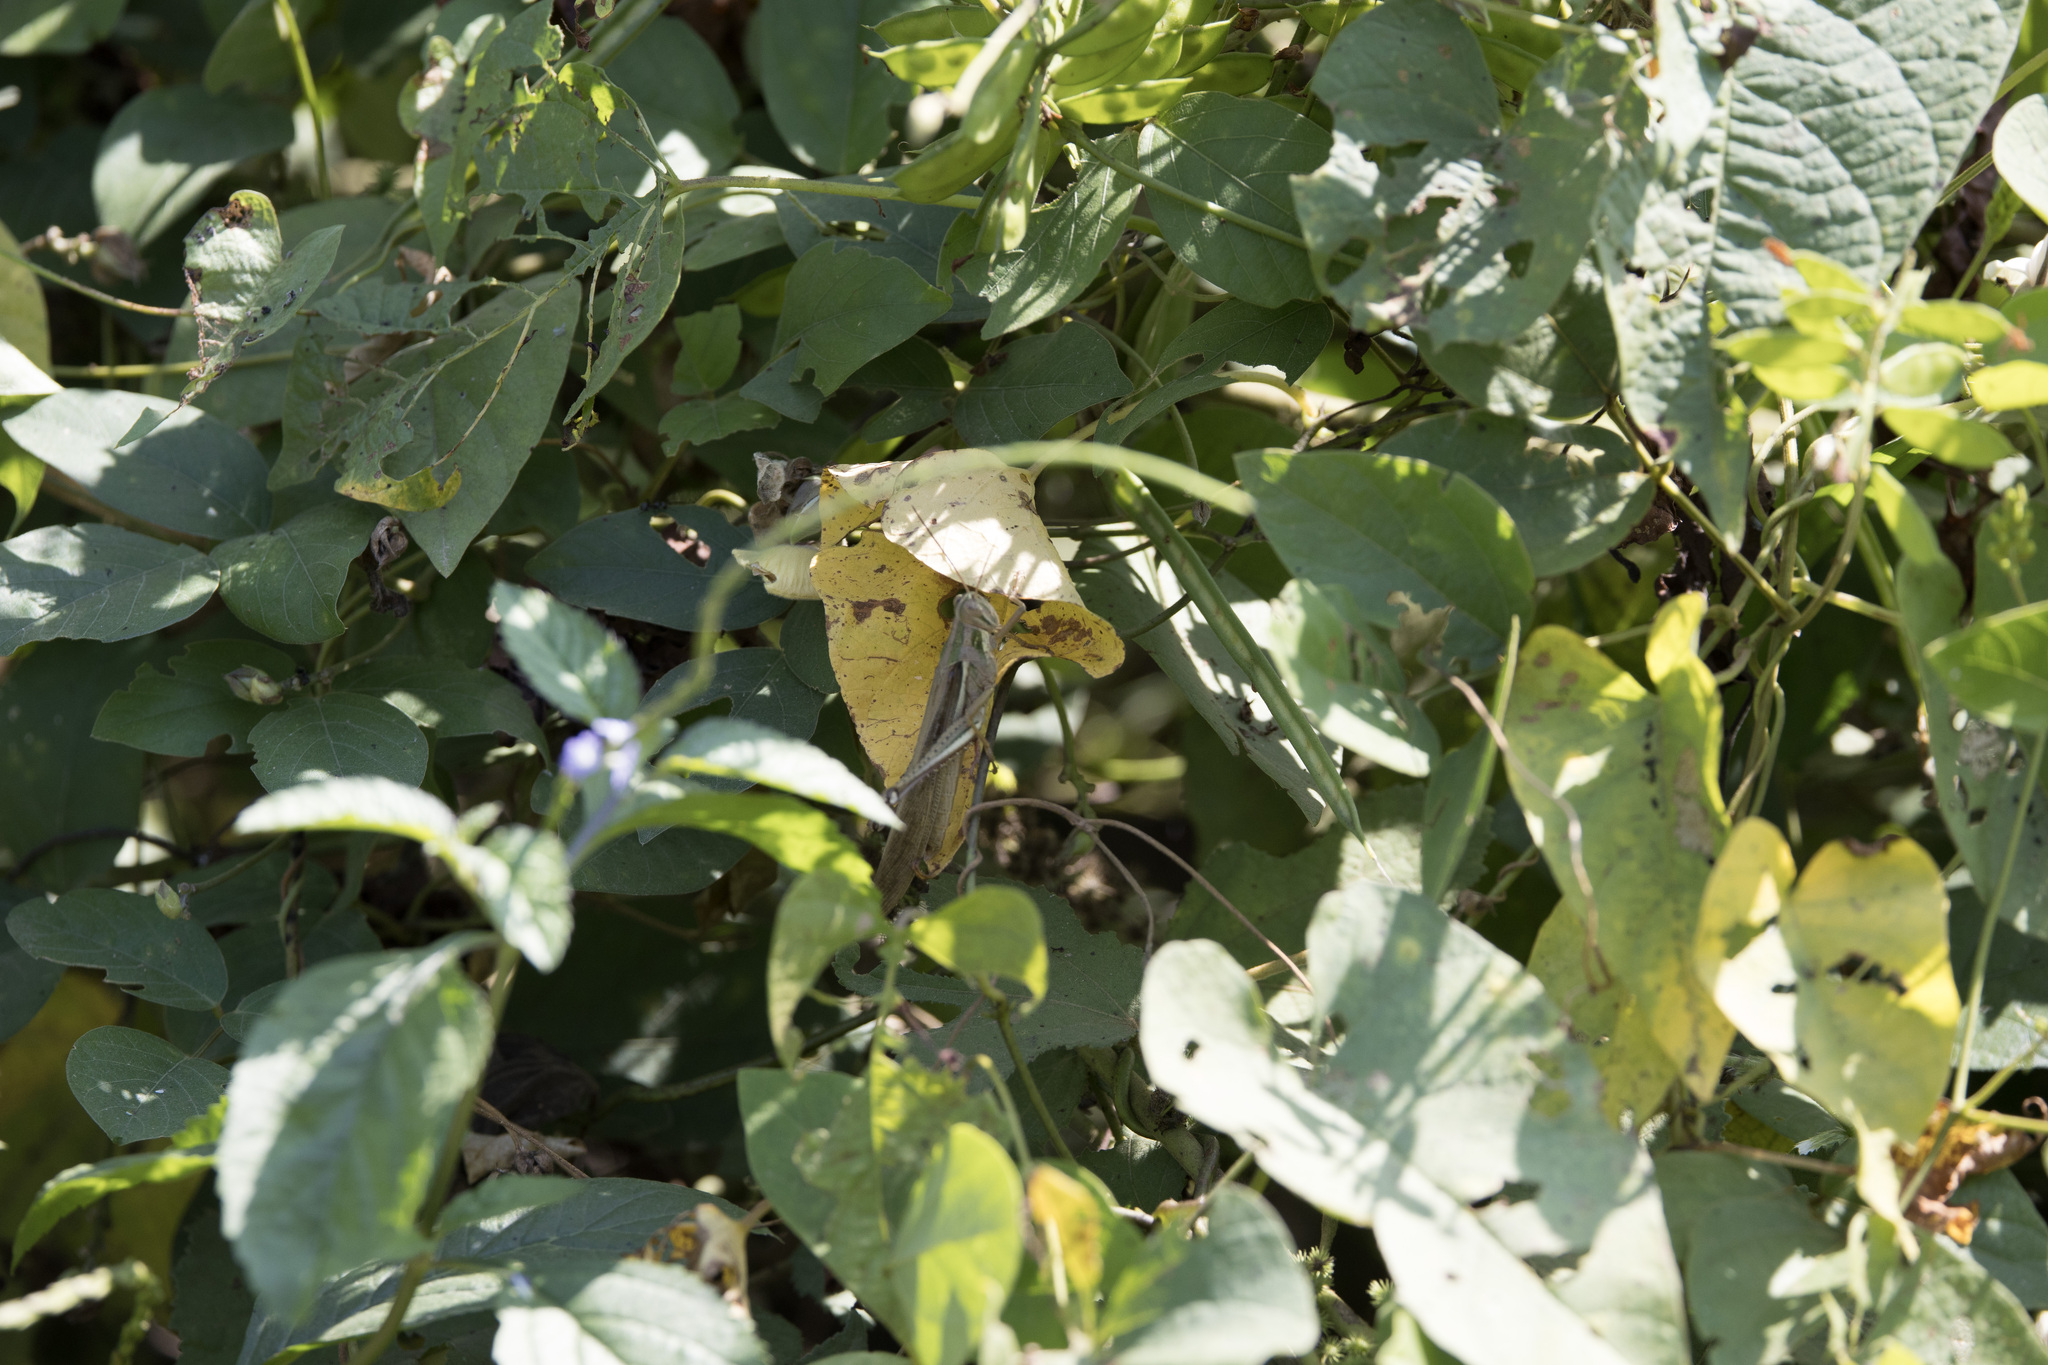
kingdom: Animalia
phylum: Arthropoda
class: Insecta
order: Orthoptera
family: Acrididae
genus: Schistocerca
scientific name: Schistocerca pallens
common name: Bird grasshopper
